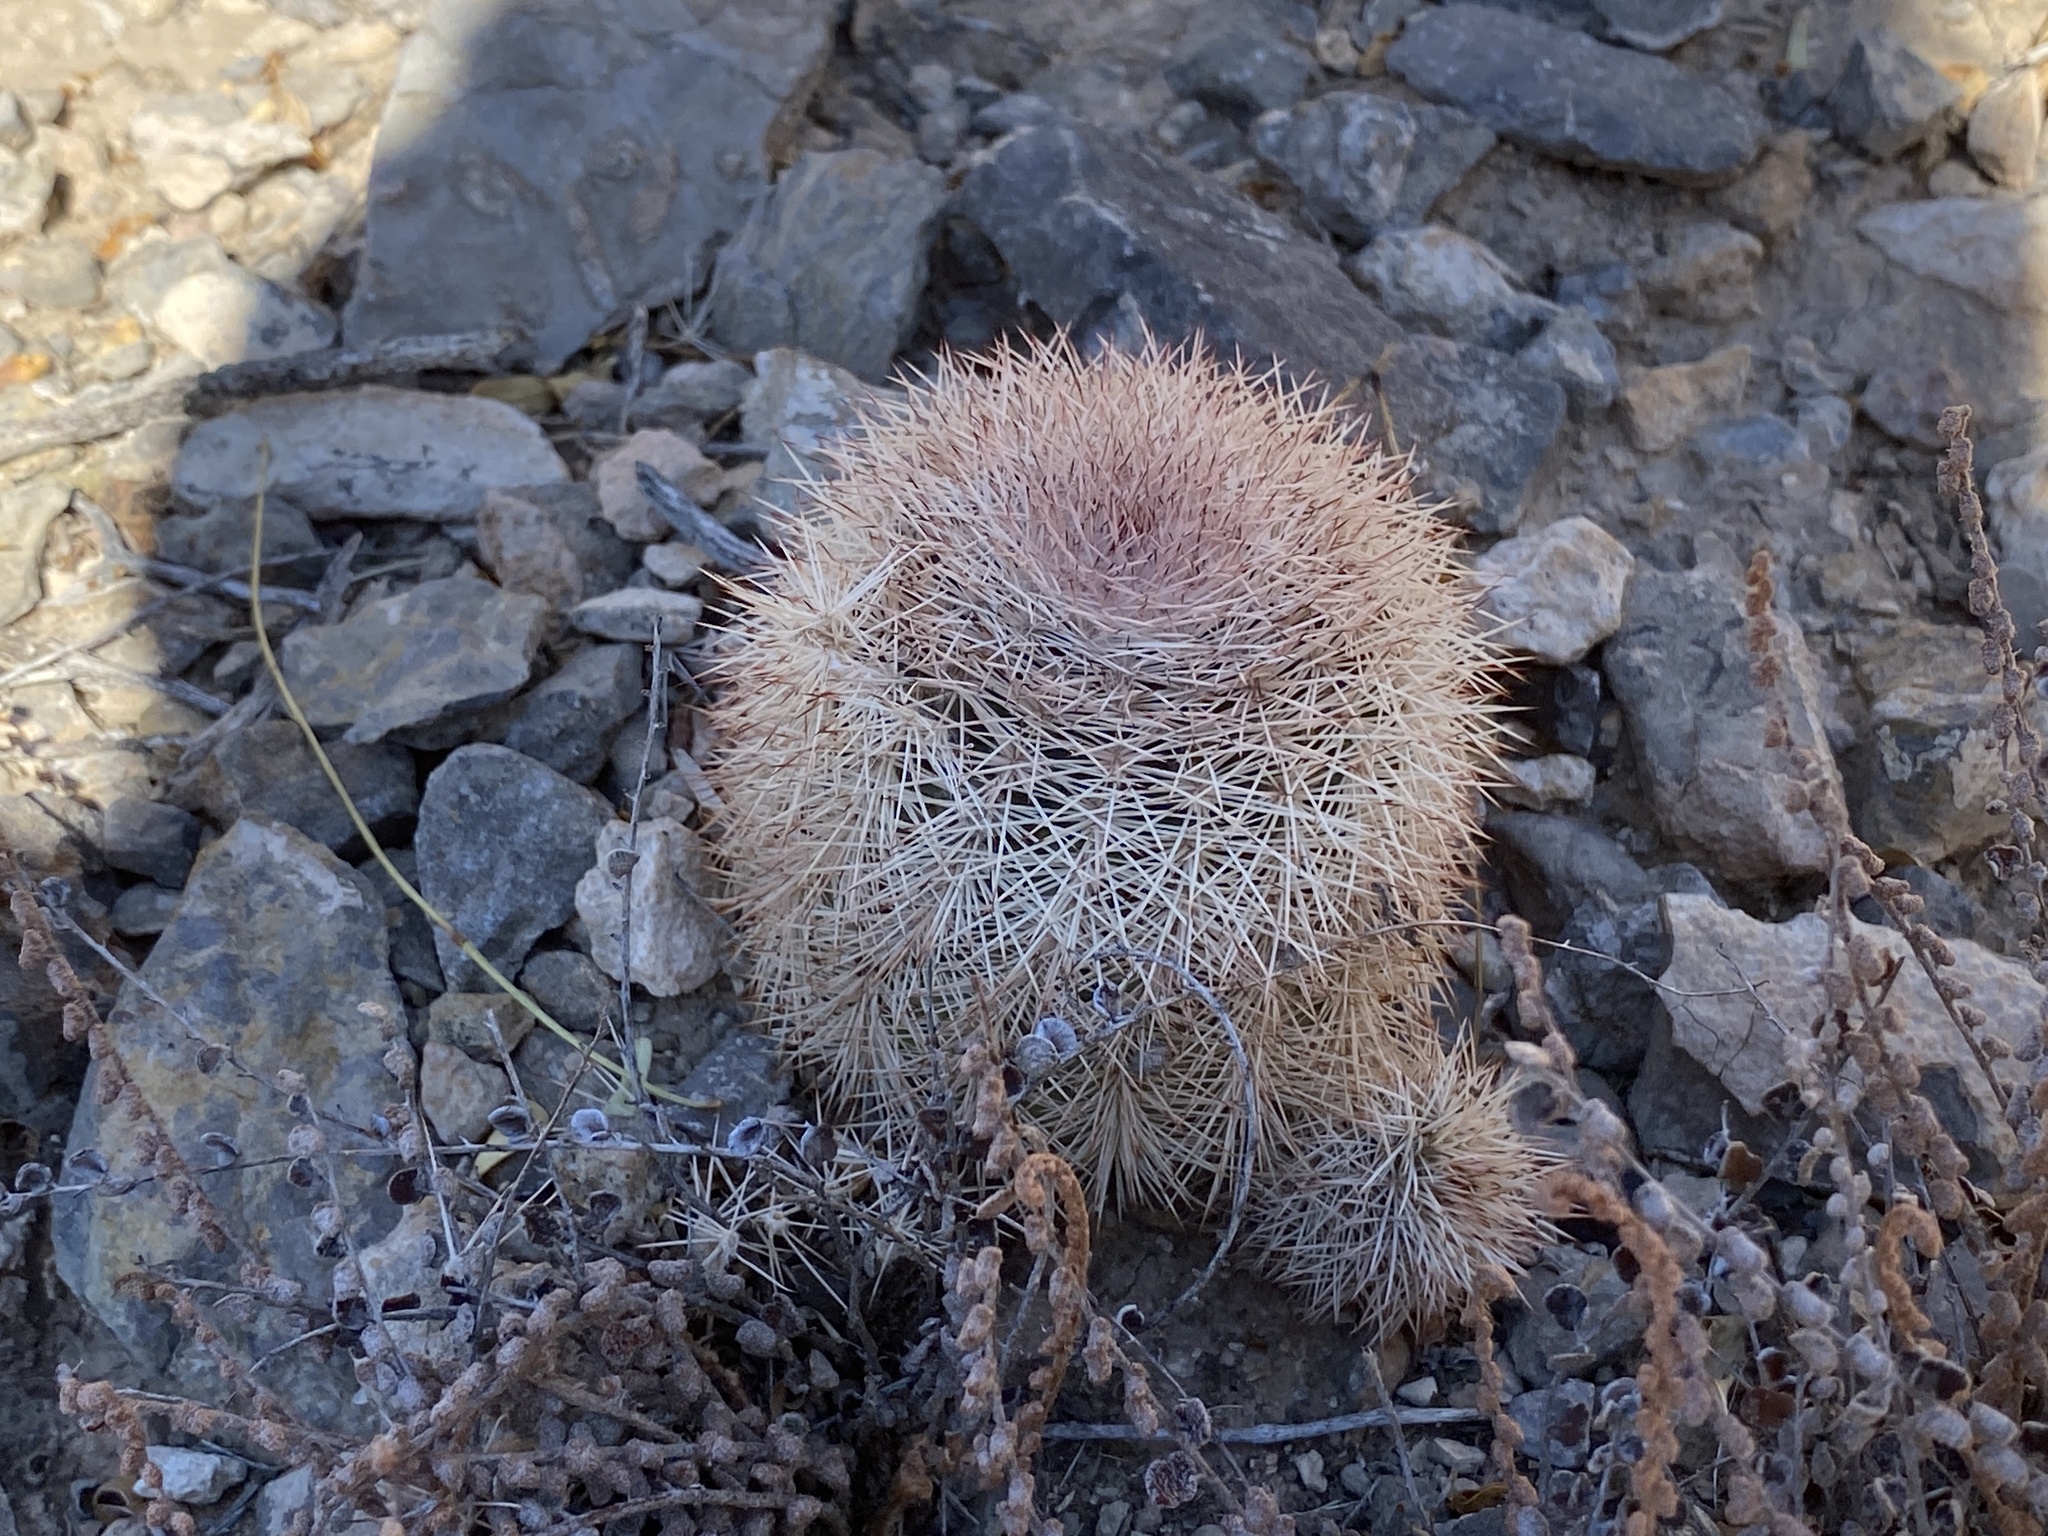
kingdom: Plantae
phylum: Tracheophyta
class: Magnoliopsida
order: Caryophyllales
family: Cactaceae
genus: Echinocereus
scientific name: Echinocereus dasyacanthus
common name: Spiny hedgehog cactus
